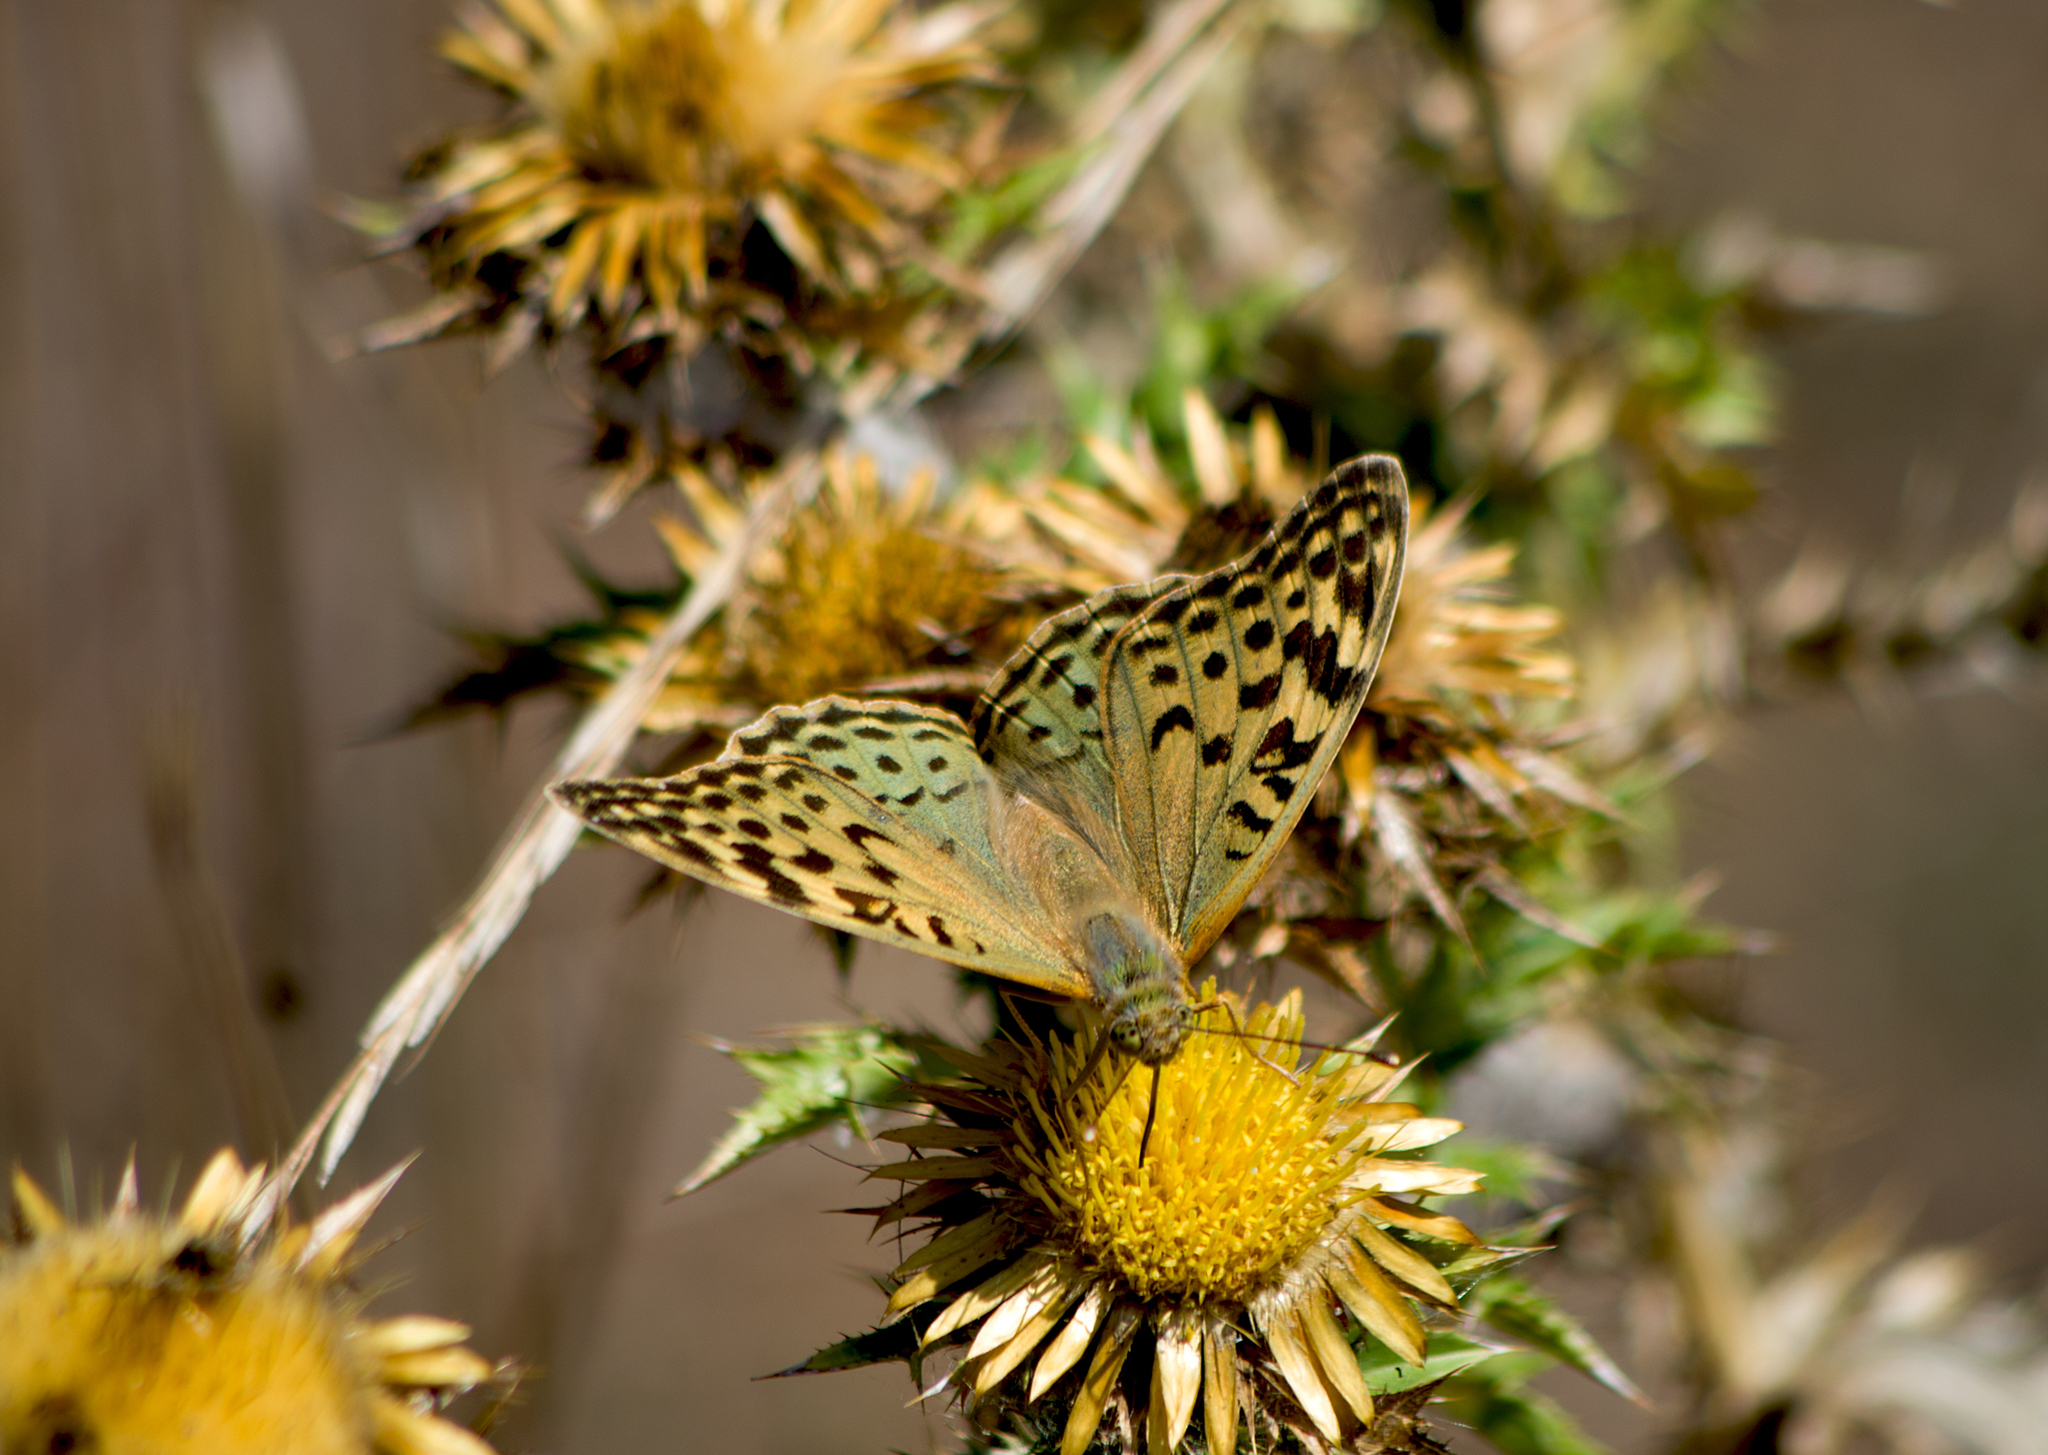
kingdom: Animalia
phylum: Arthropoda
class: Insecta
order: Lepidoptera
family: Nymphalidae
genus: Damora
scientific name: Damora pandora
